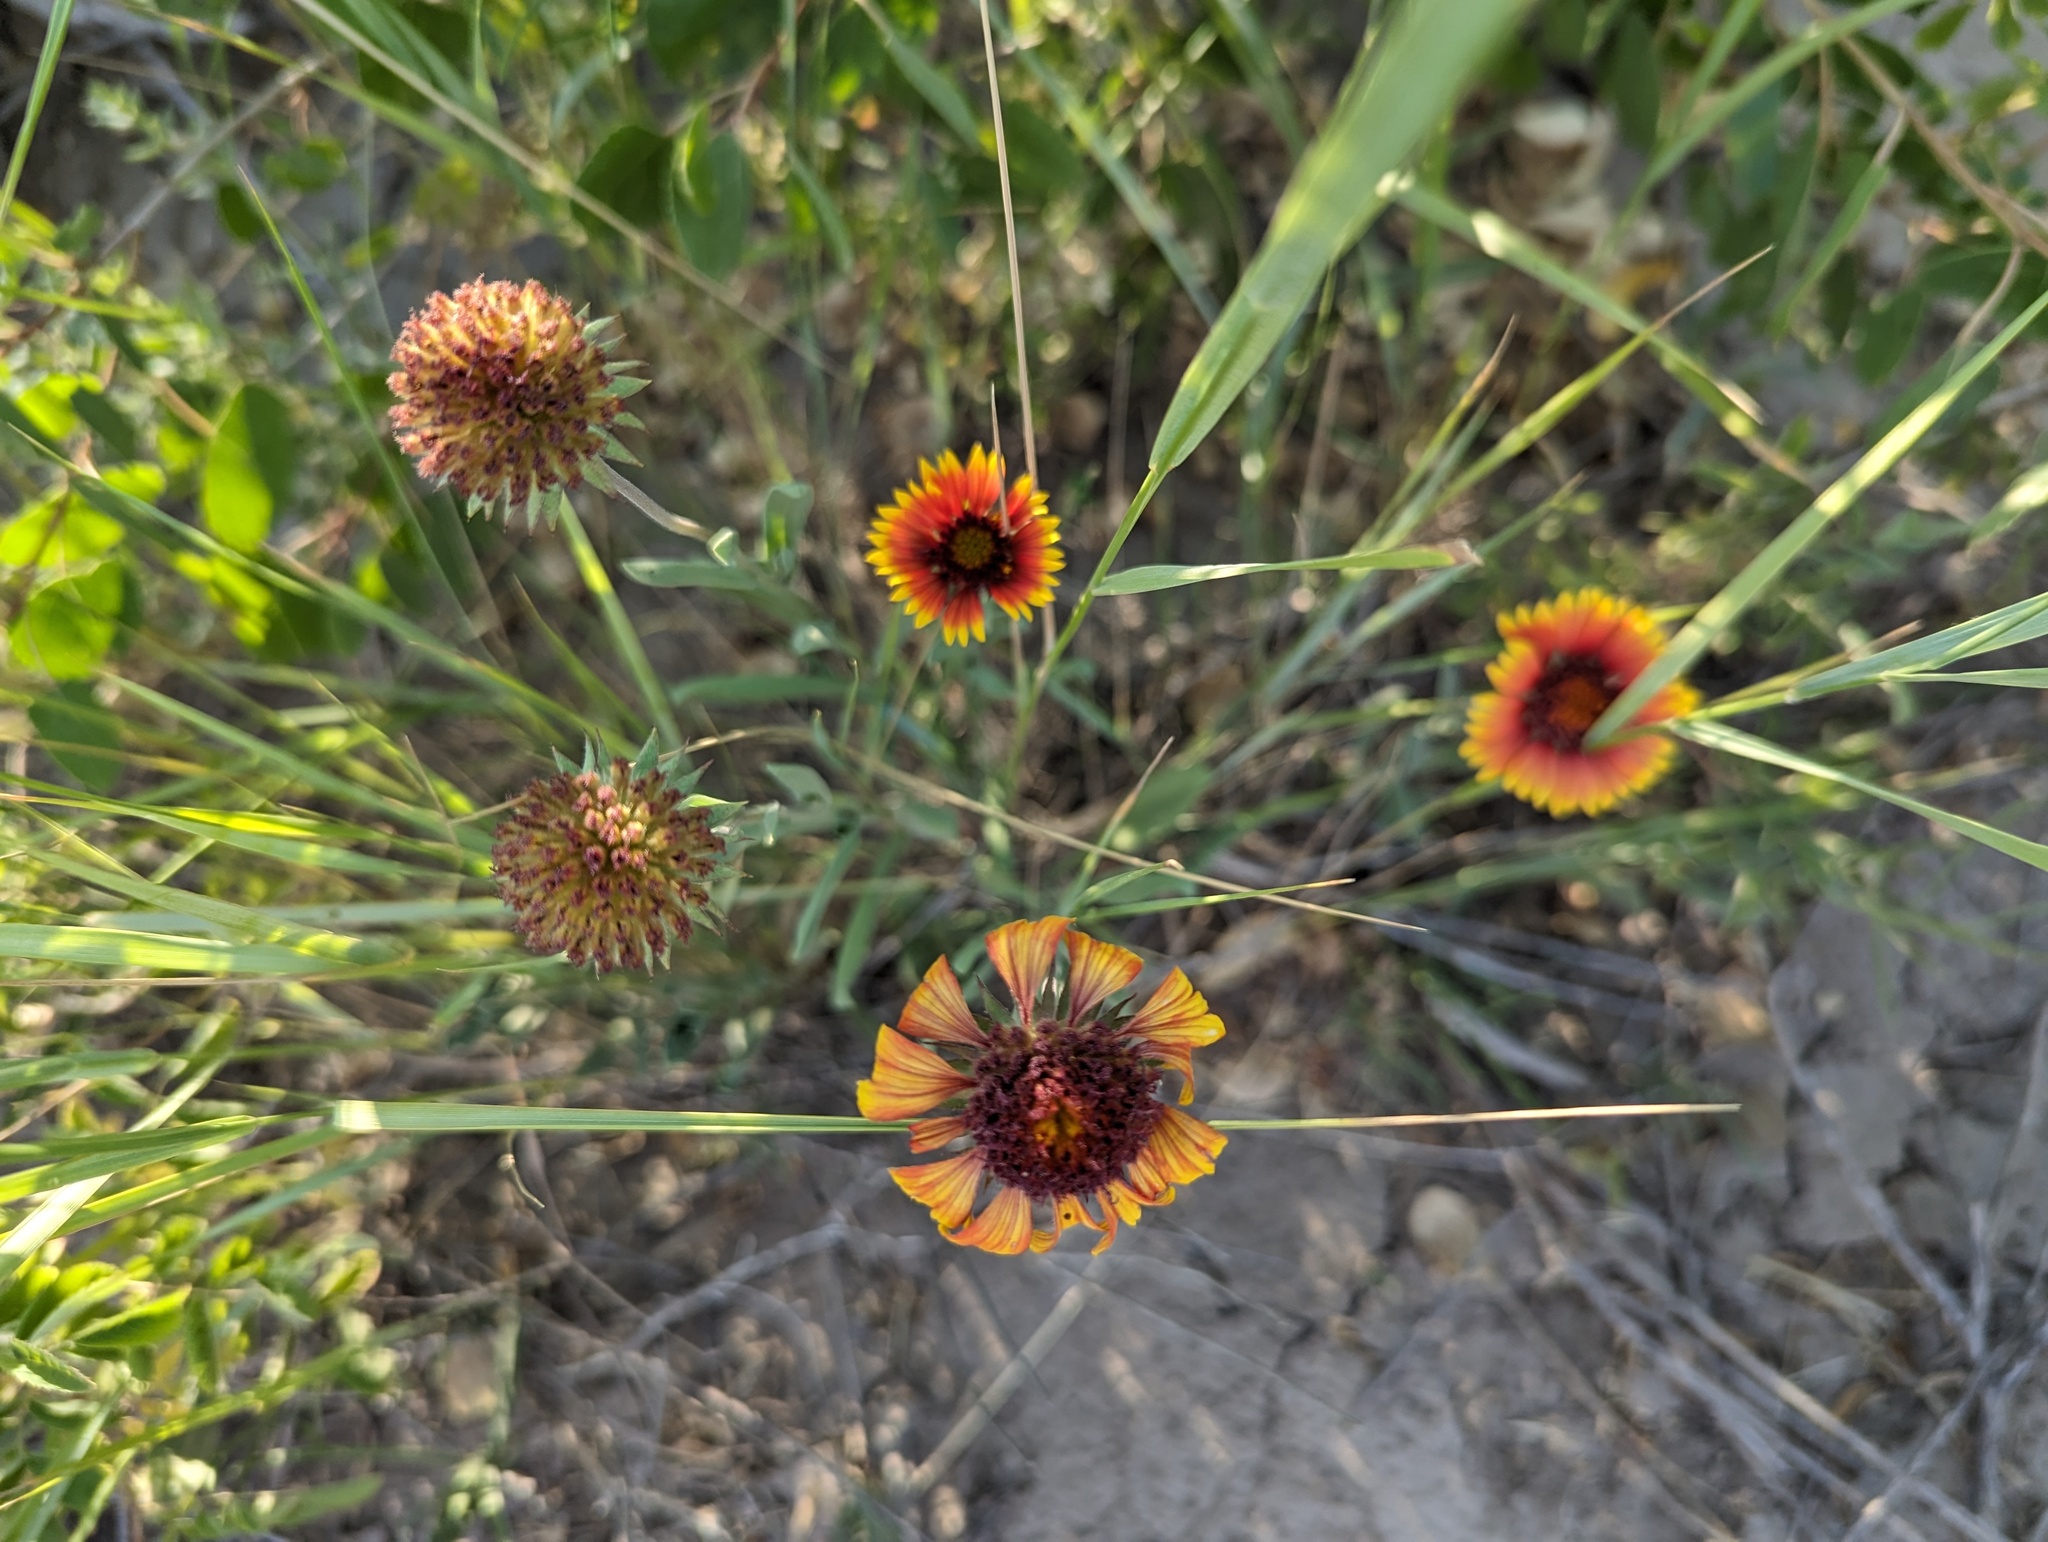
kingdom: Plantae
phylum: Tracheophyta
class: Magnoliopsida
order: Asterales
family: Asteraceae
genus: Gaillardia
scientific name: Gaillardia pulchella
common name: Firewheel
